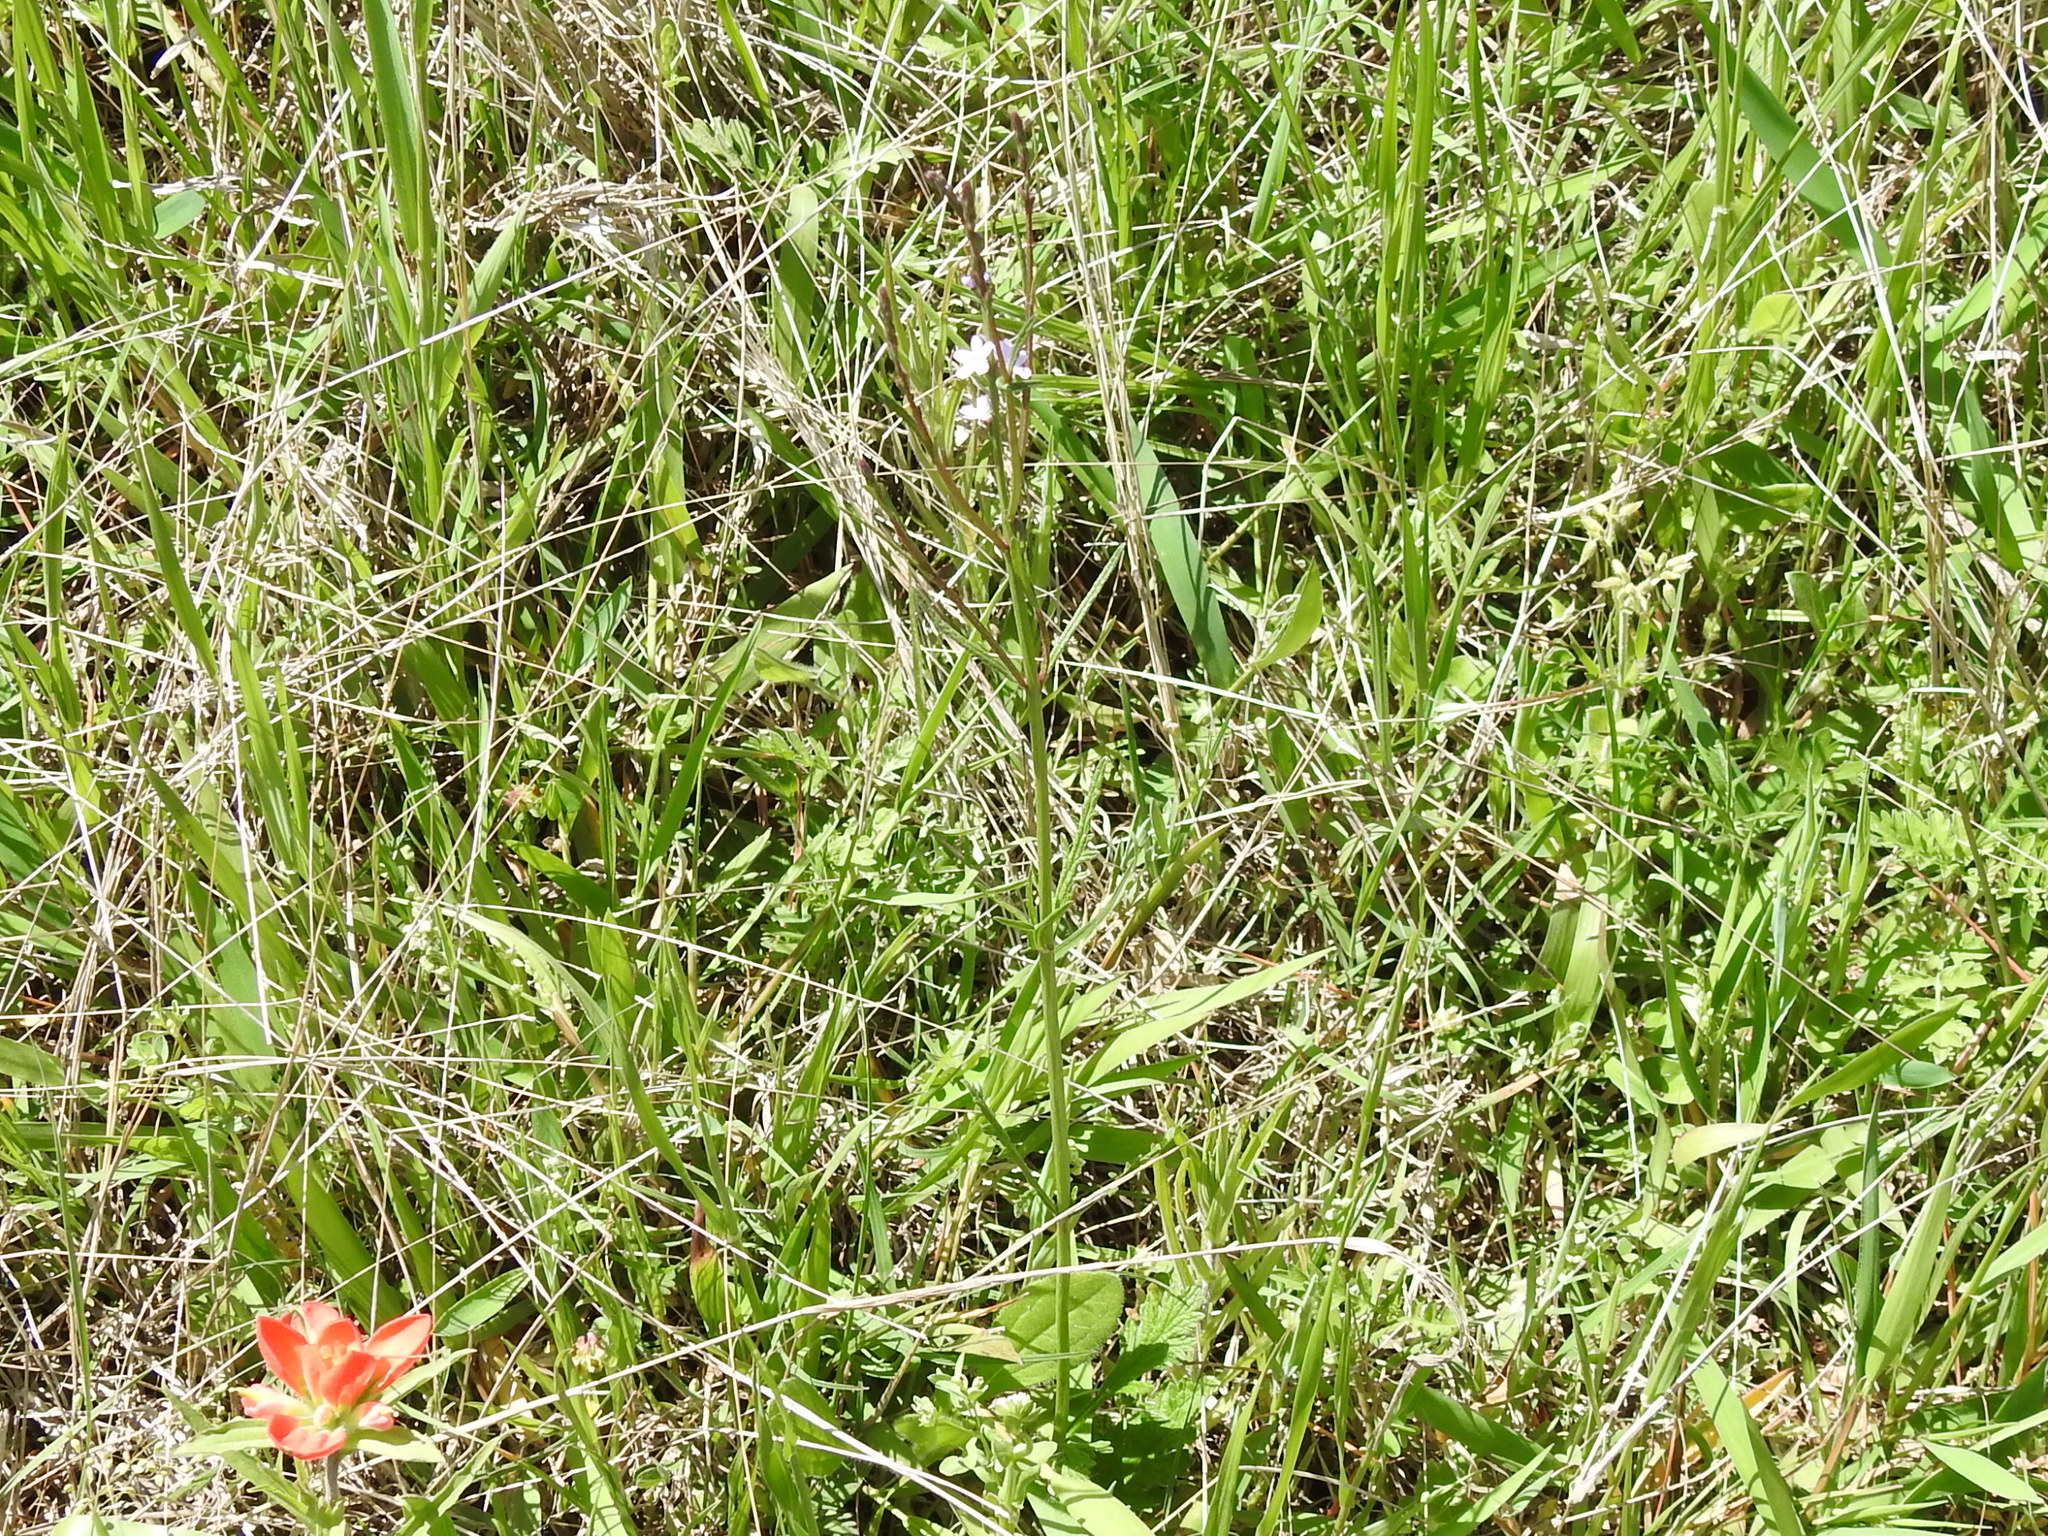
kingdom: Plantae
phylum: Tracheophyta
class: Magnoliopsida
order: Lamiales
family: Verbenaceae
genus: Verbena
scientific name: Verbena halei
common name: Texas vervain
